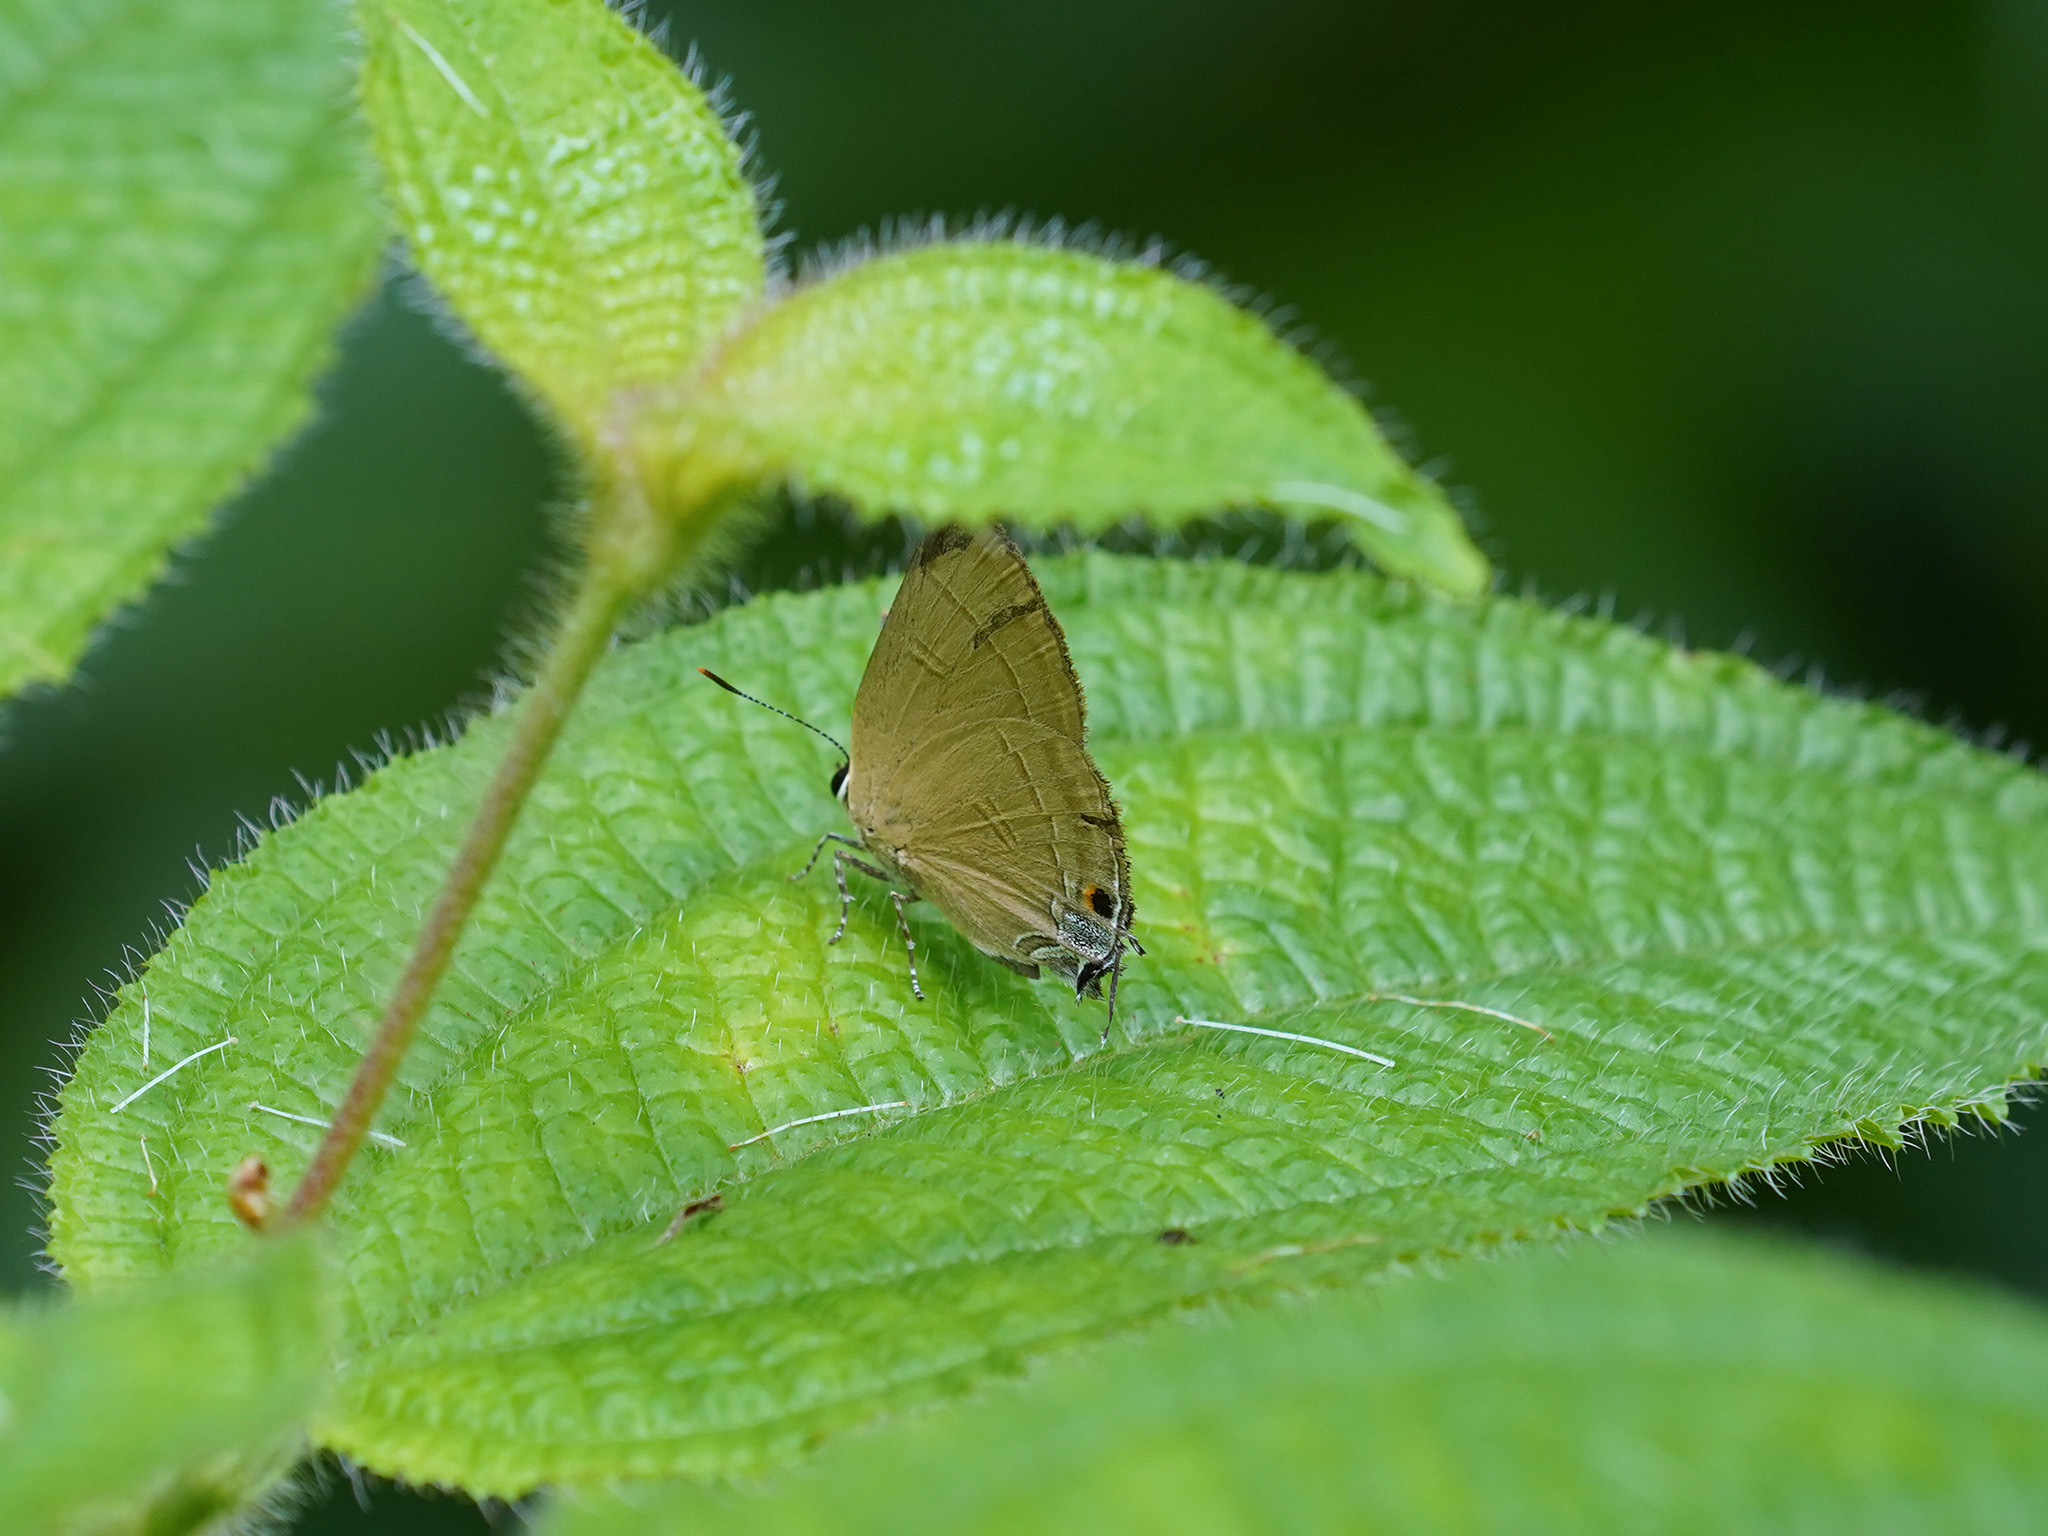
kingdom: Animalia
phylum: Arthropoda
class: Insecta
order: Lepidoptera
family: Lycaenidae
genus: Rapala
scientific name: Rapala manea
